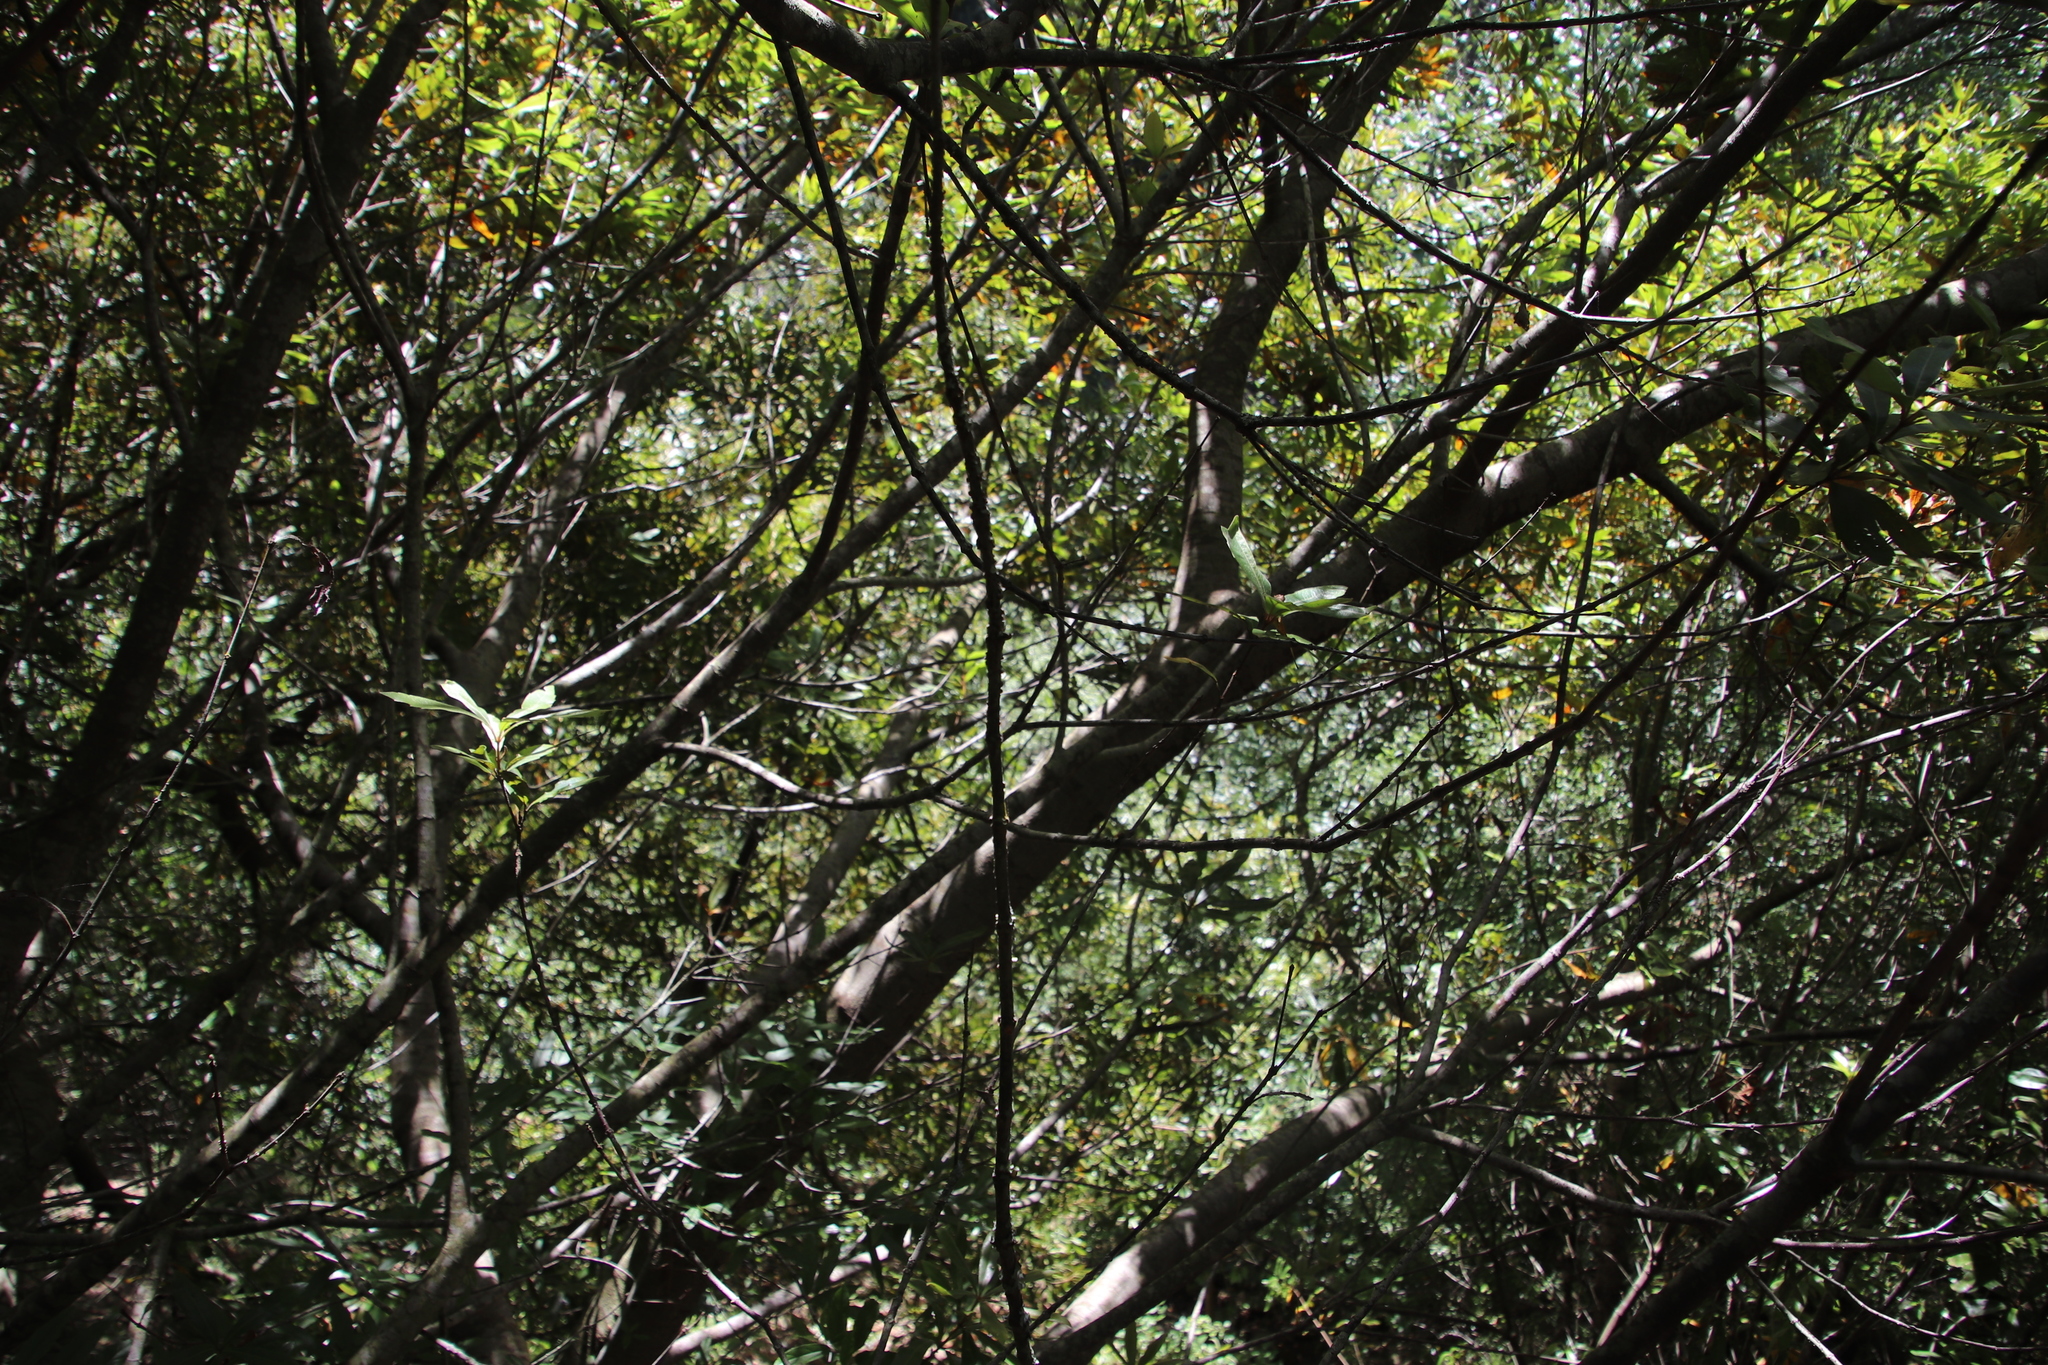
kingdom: Plantae
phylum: Tracheophyta
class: Magnoliopsida
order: Proteales
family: Proteaceae
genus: Brabejum
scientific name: Brabejum stellatifolium
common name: Wild almond
